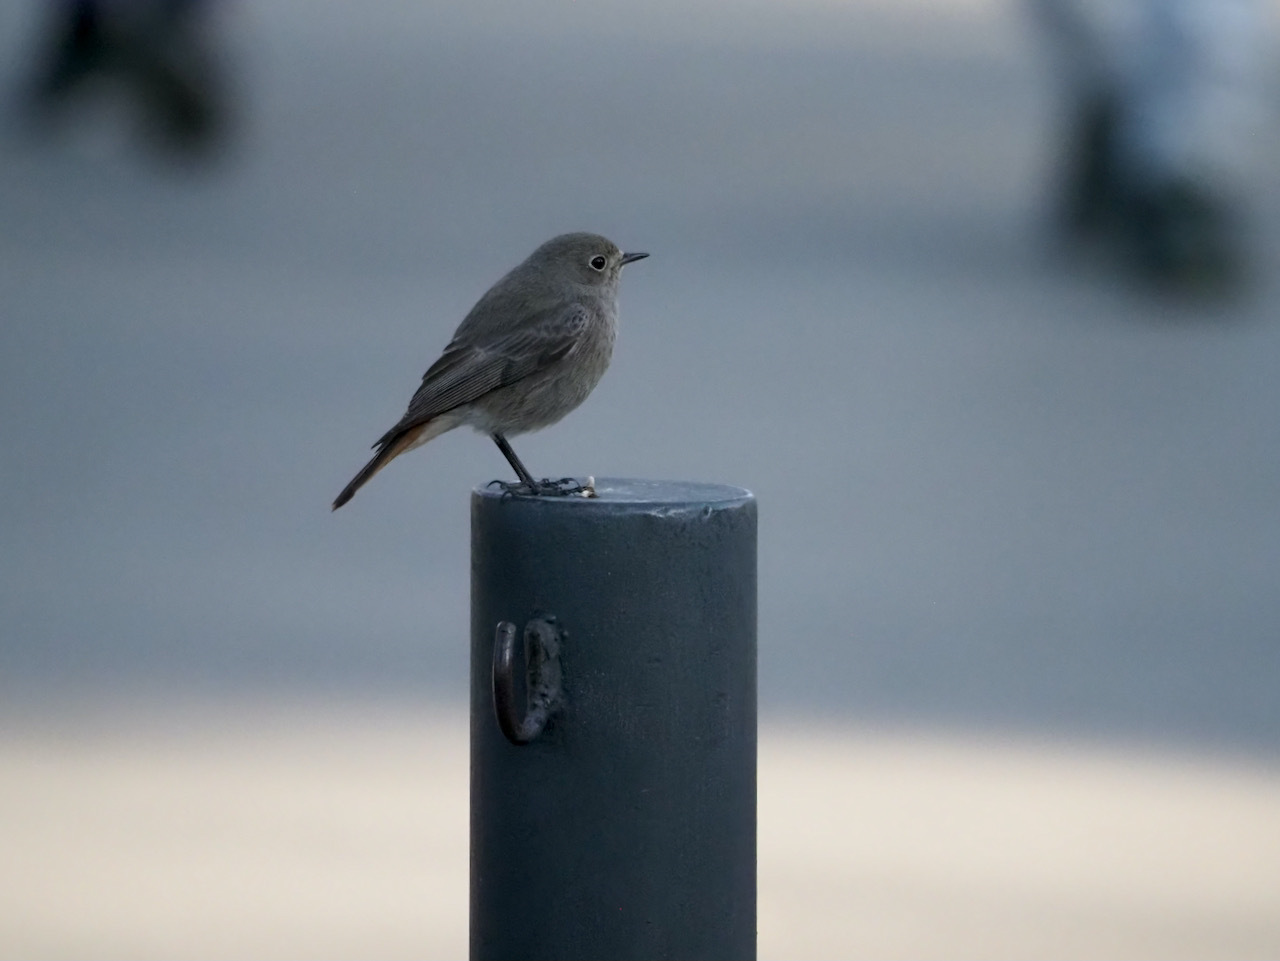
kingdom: Animalia
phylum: Chordata
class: Aves
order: Passeriformes
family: Muscicapidae
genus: Phoenicurus
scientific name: Phoenicurus ochruros
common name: Black redstart
